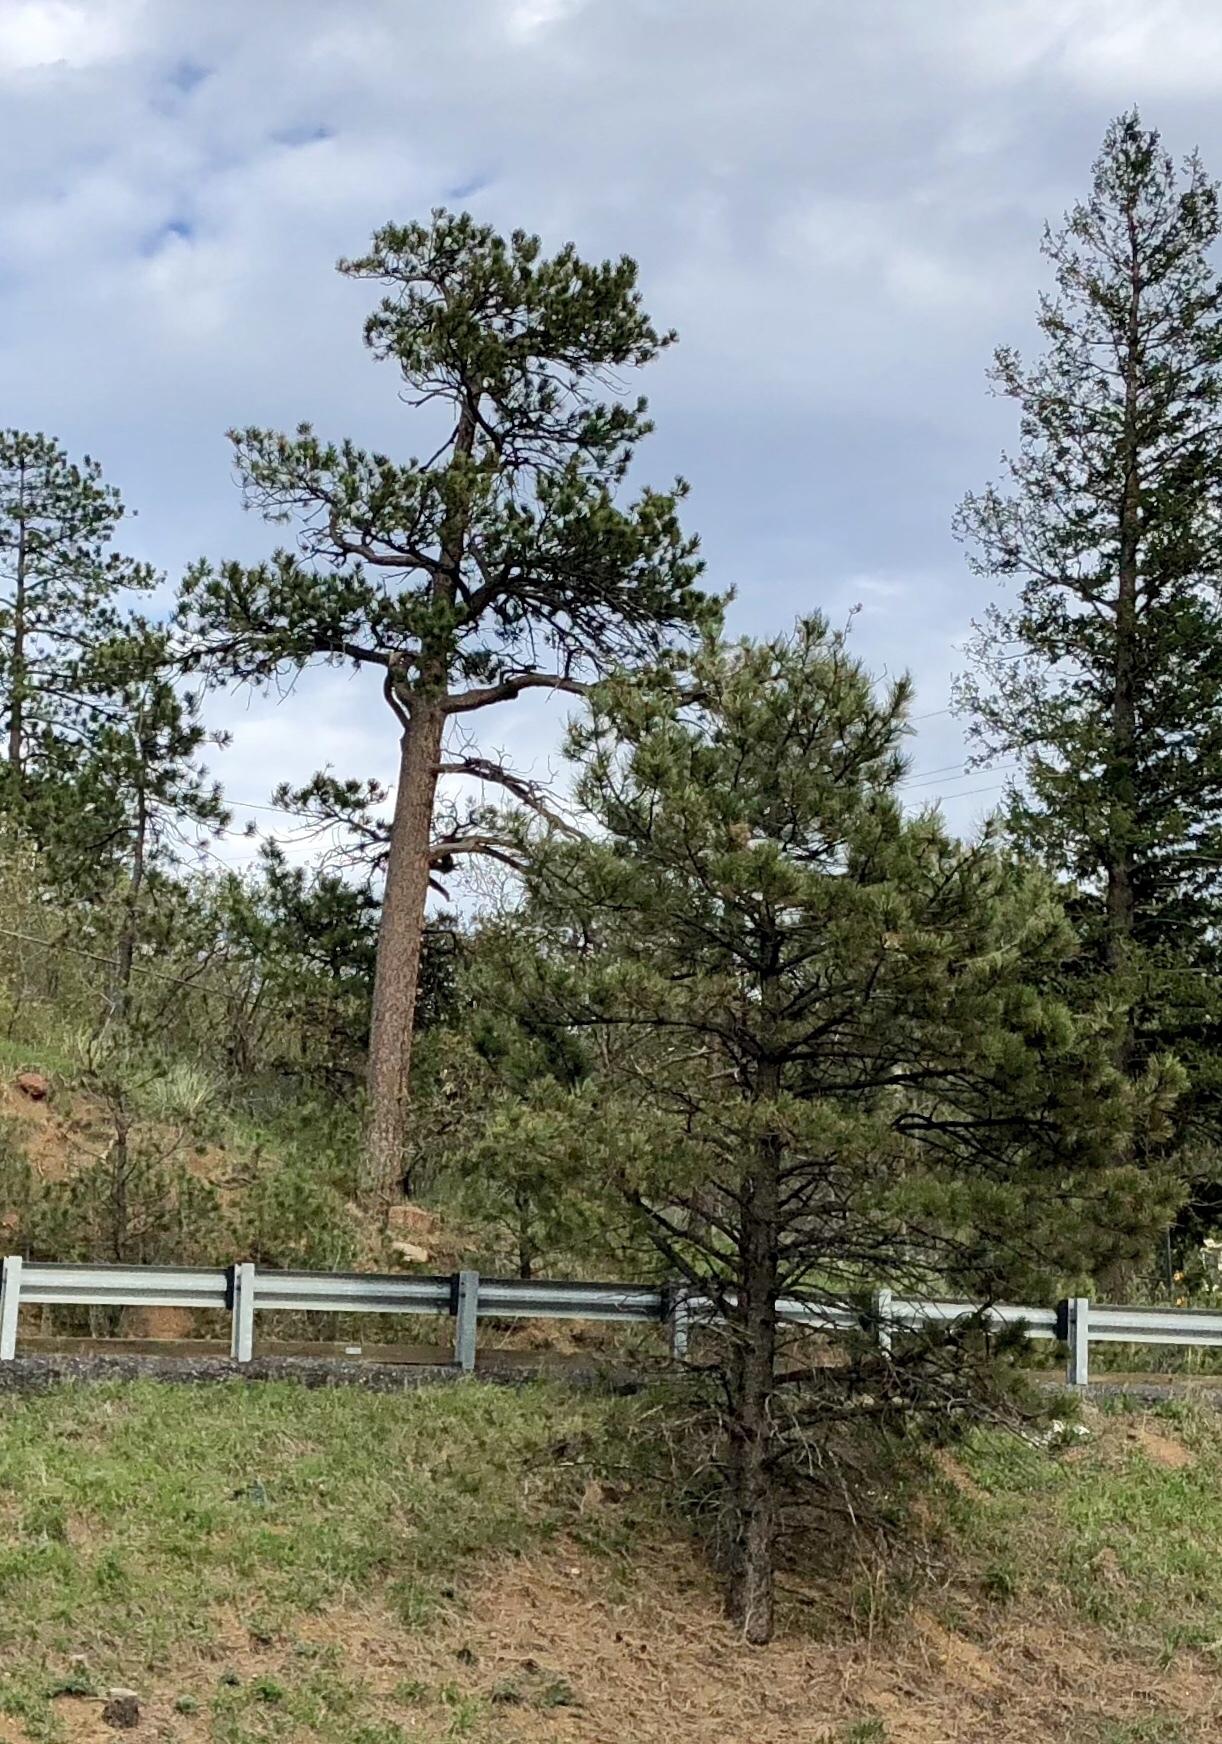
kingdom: Plantae
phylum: Tracheophyta
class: Pinopsida
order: Pinales
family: Pinaceae
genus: Pinus
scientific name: Pinus ponderosa
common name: Western yellow-pine
